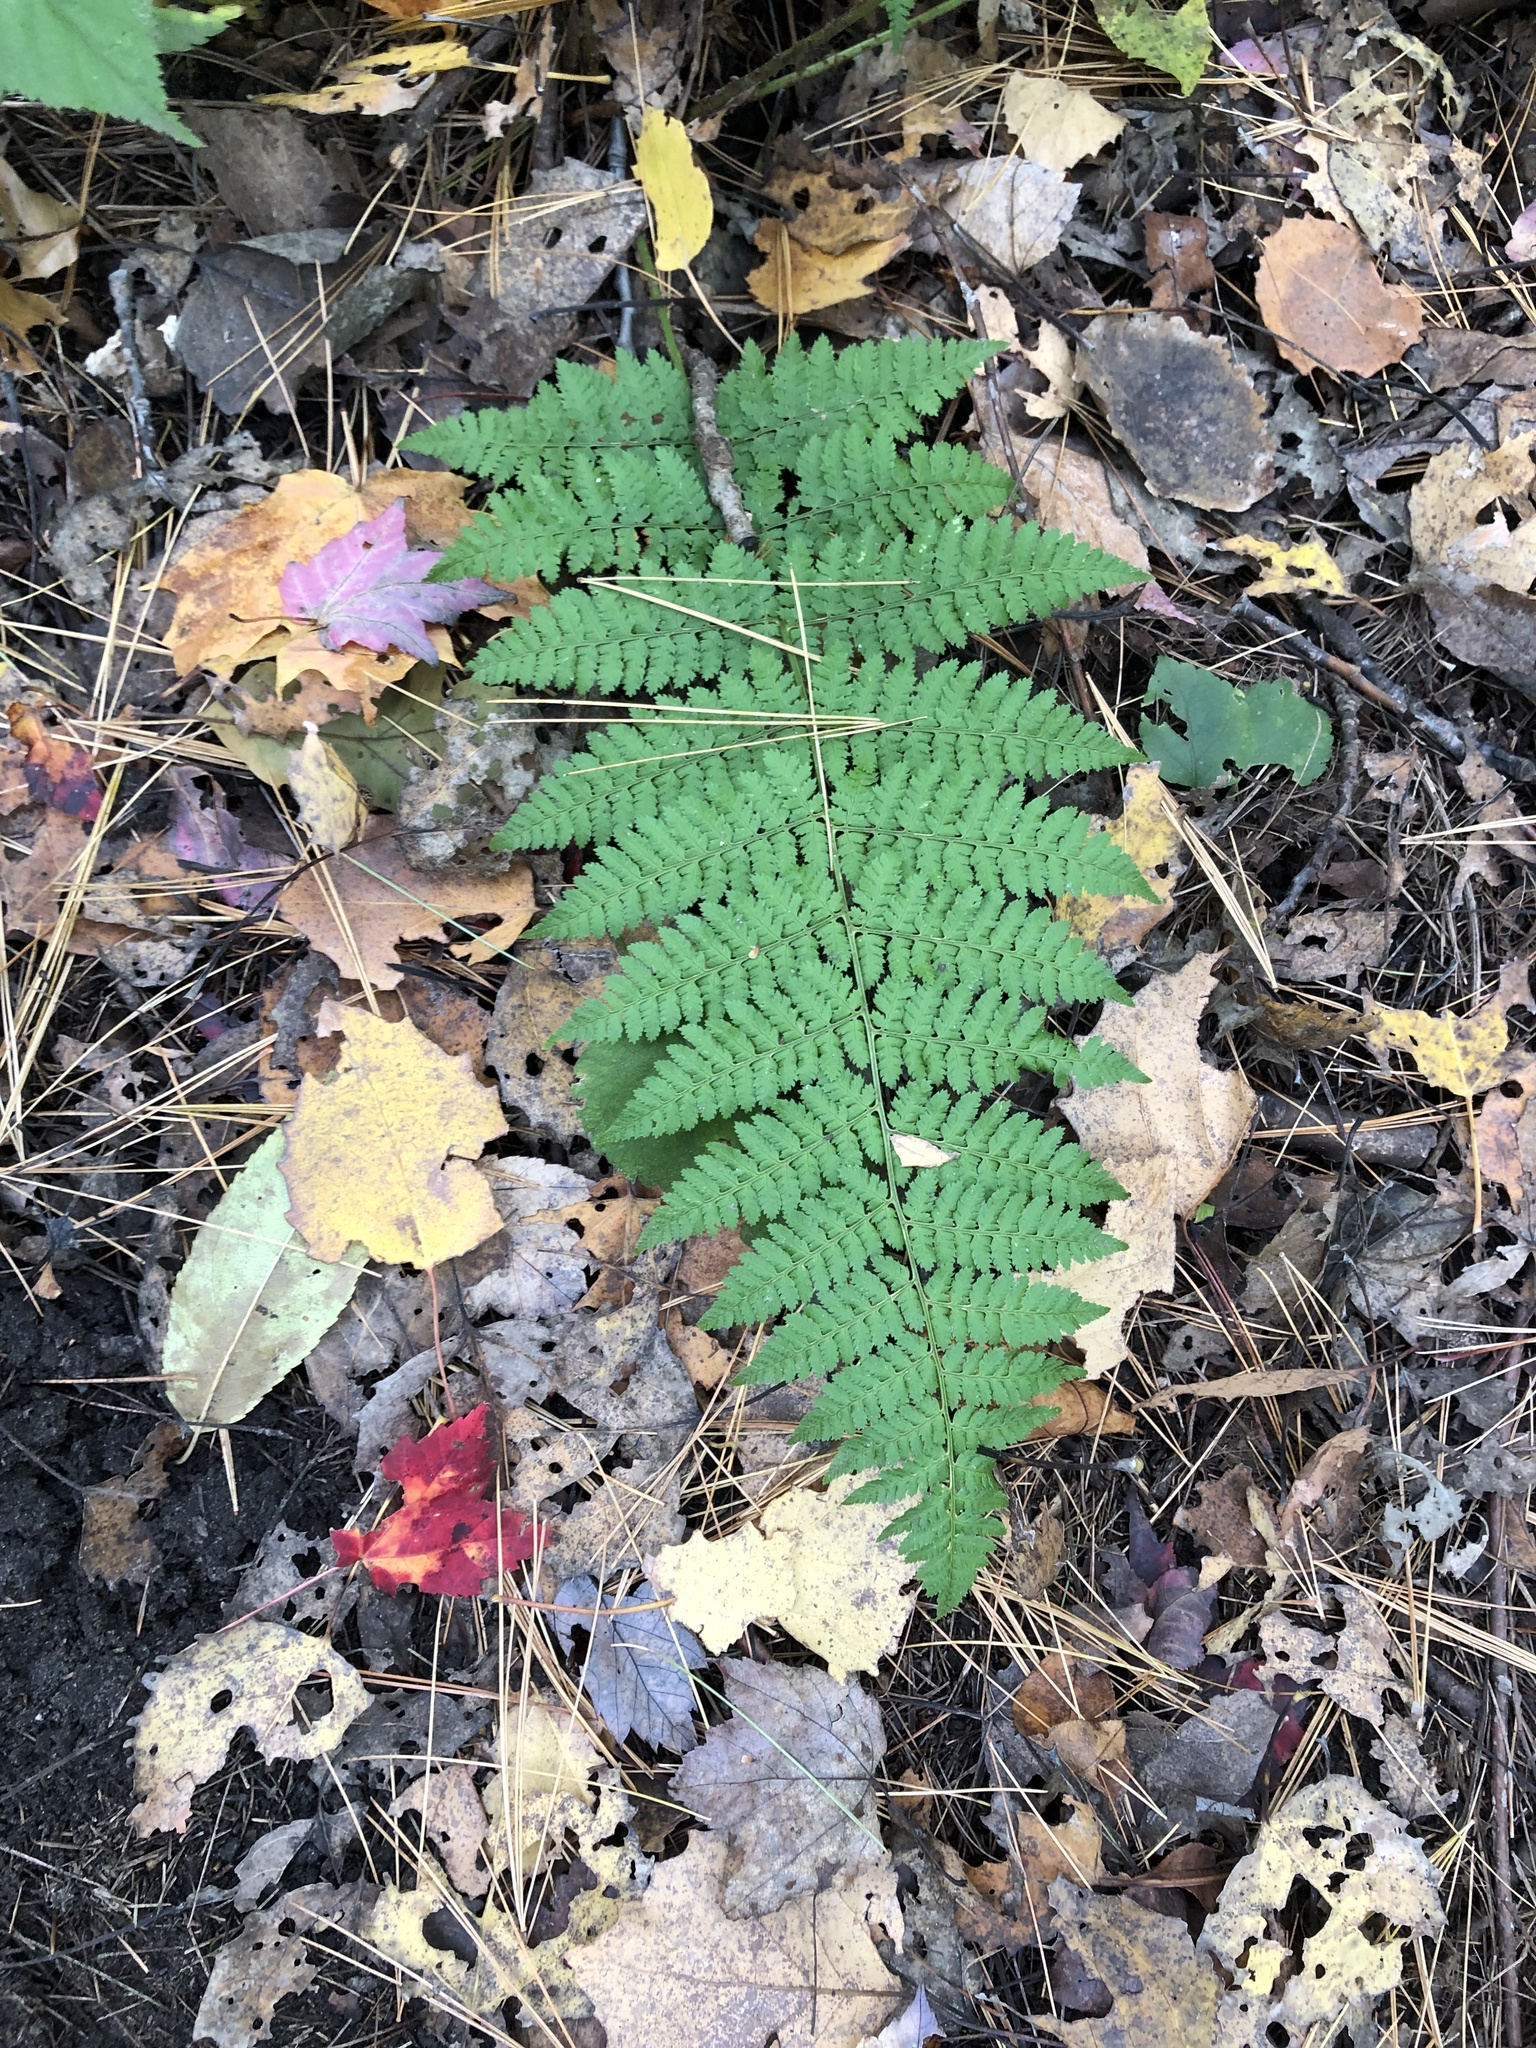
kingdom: Plantae
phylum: Tracheophyta
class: Polypodiopsida
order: Polypodiales
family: Dryopteridaceae
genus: Dryopteris
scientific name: Dryopteris intermedia
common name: Evergreen wood fern
